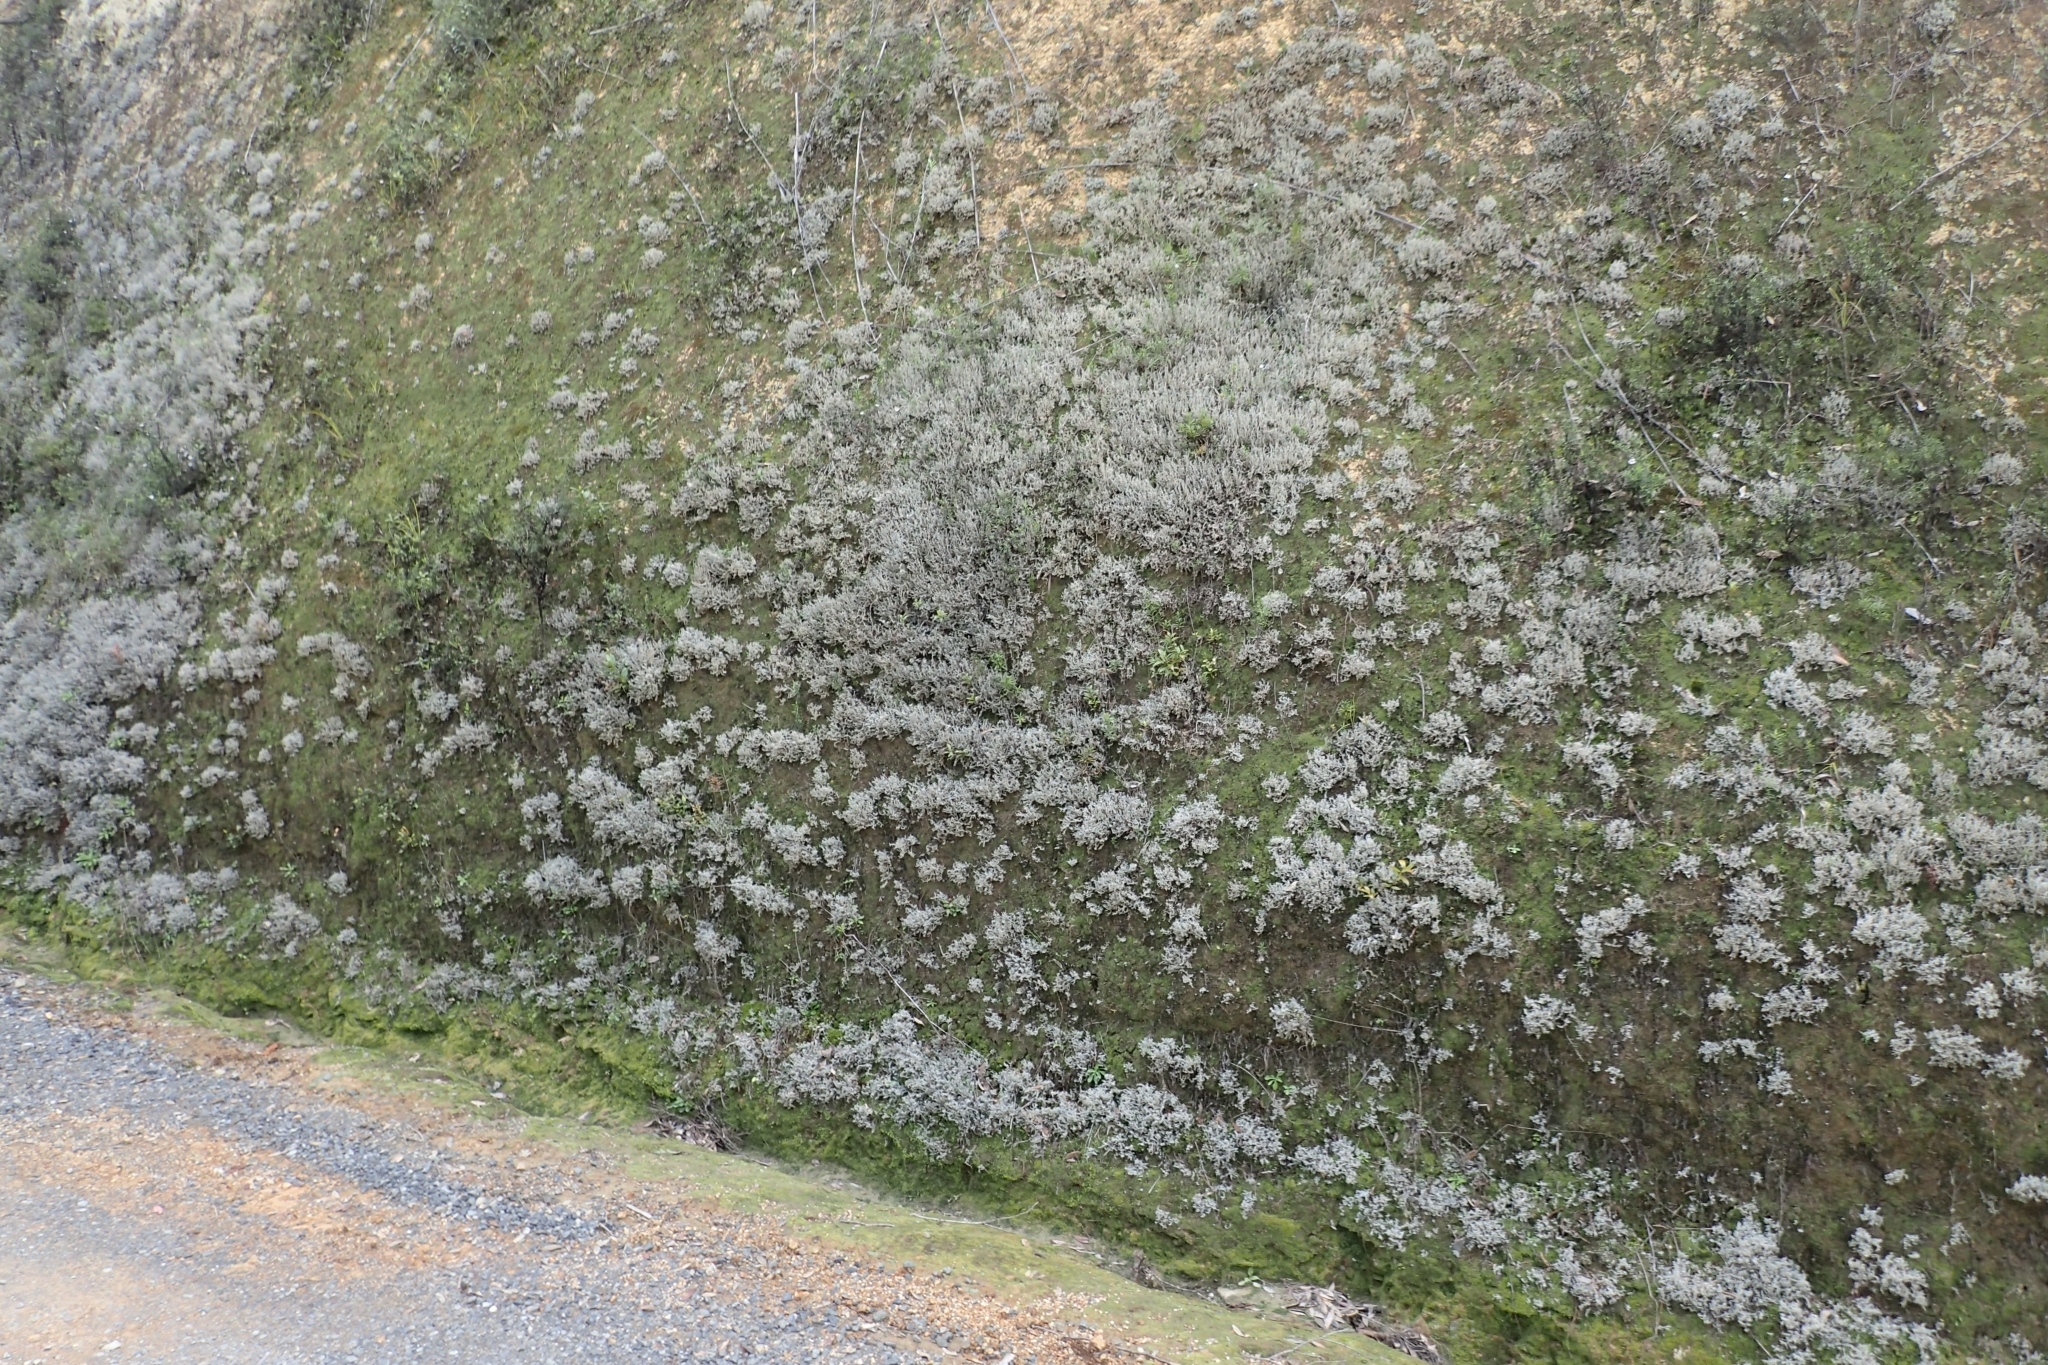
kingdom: Fungi
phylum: Ascomycota
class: Lecanoromycetes
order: Lecanorales
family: Stereocaulaceae
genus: Stereocaulon
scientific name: Stereocaulon ramulosum
